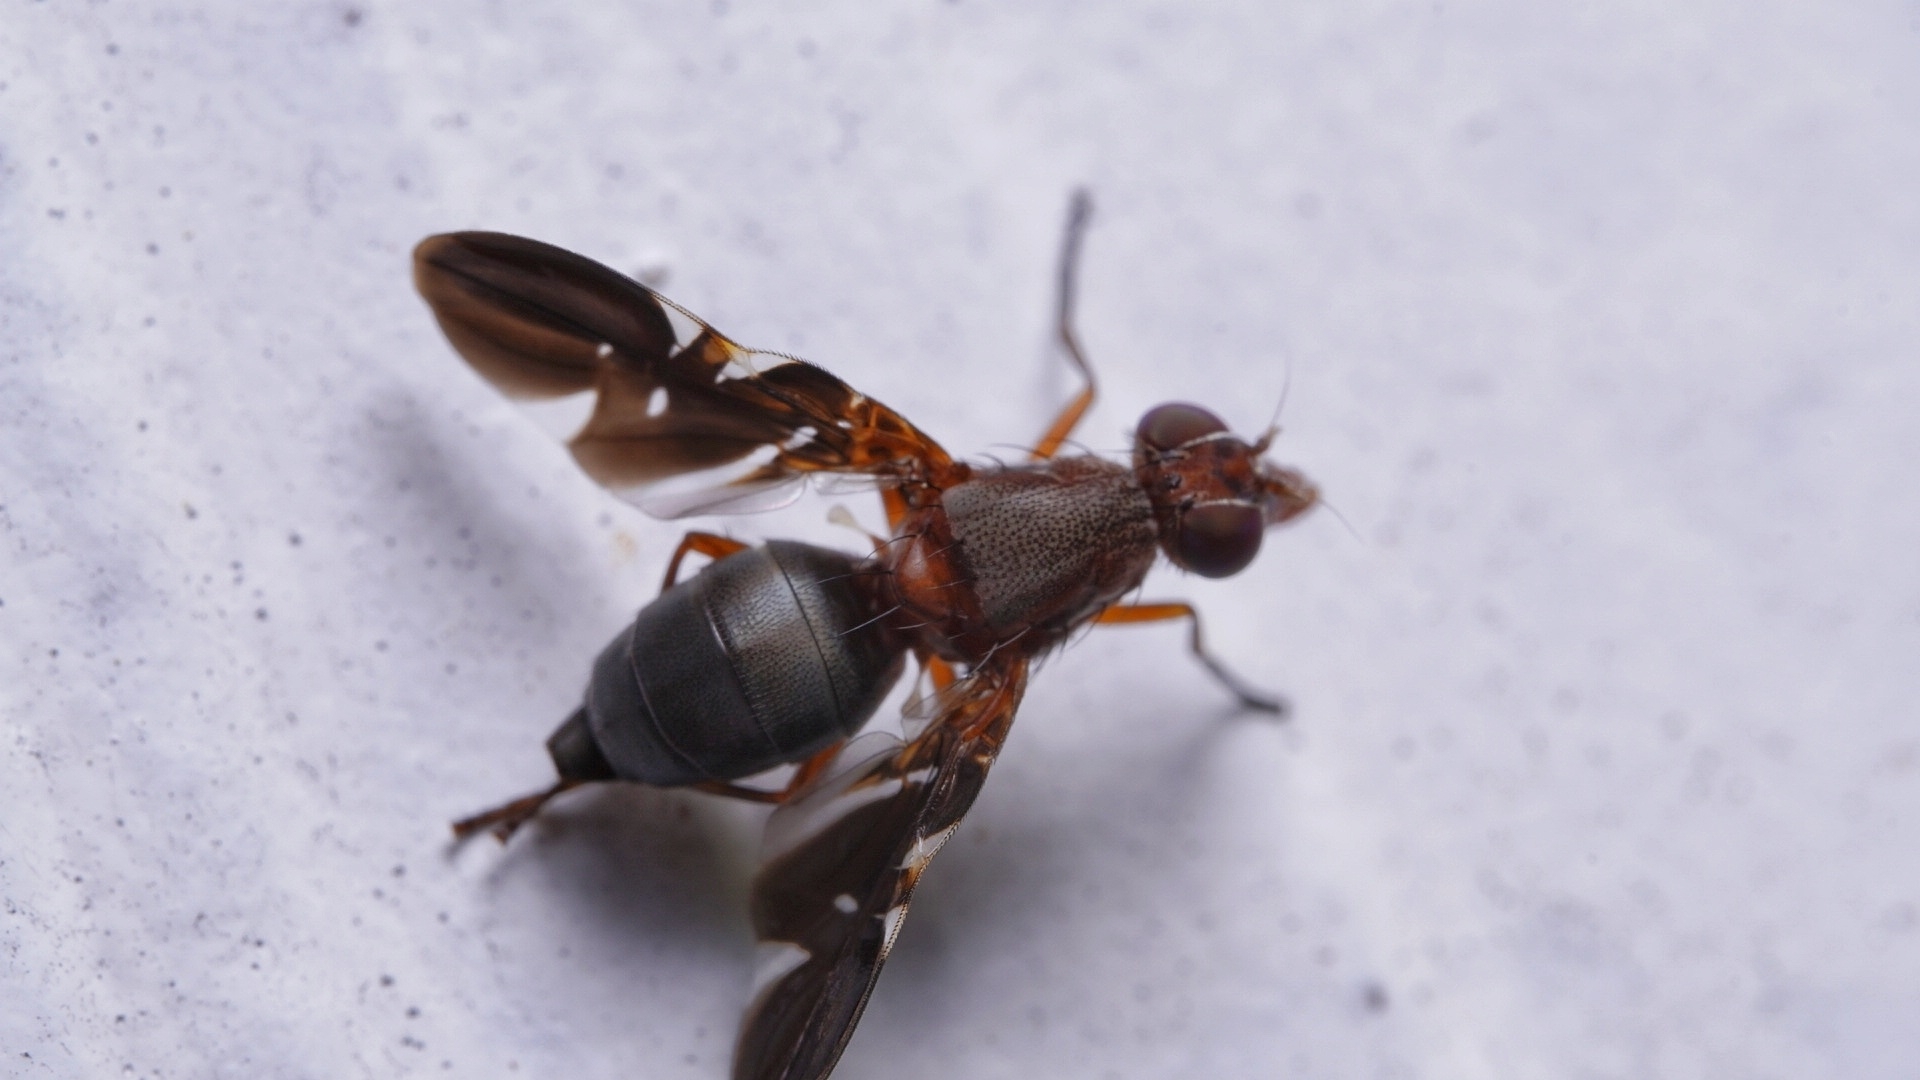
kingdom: Animalia
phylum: Arthropoda
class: Insecta
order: Diptera
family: Ulidiidae
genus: Delphinia
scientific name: Delphinia picta
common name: Common picture-winged fly
